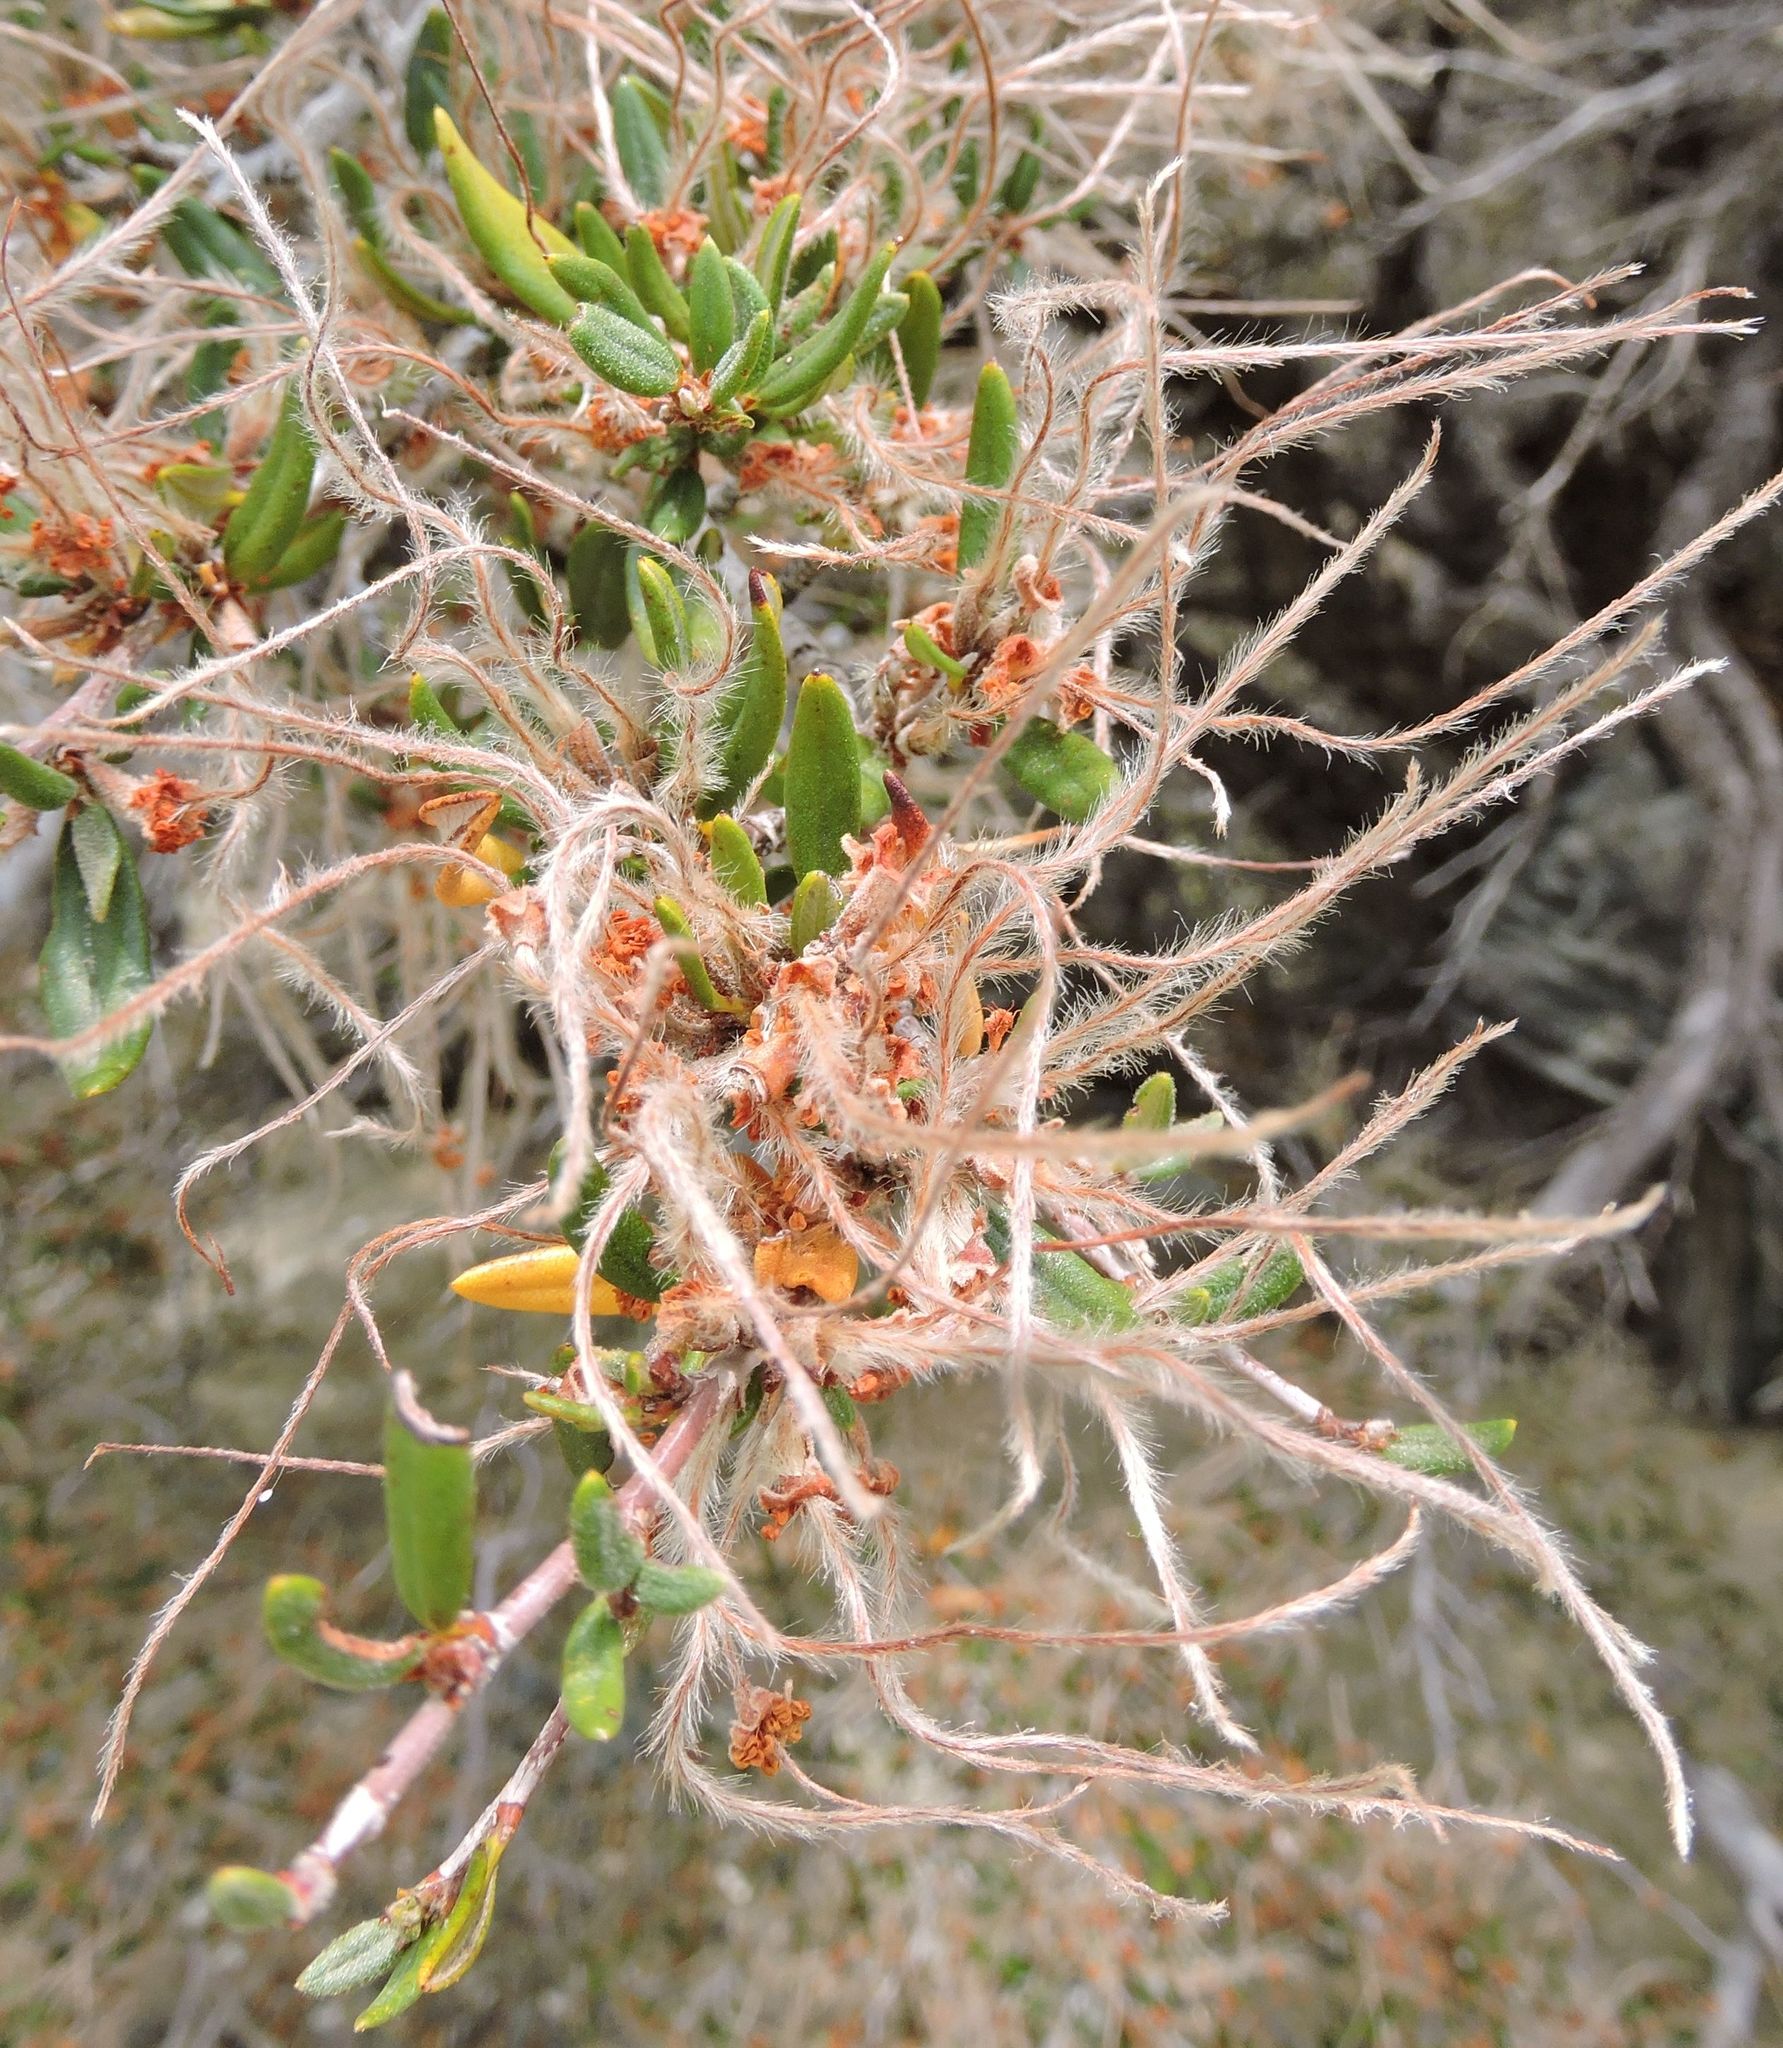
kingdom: Plantae
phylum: Tracheophyta
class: Magnoliopsida
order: Rosales
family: Rosaceae
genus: Cercocarpus
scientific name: Cercocarpus ledifolius
